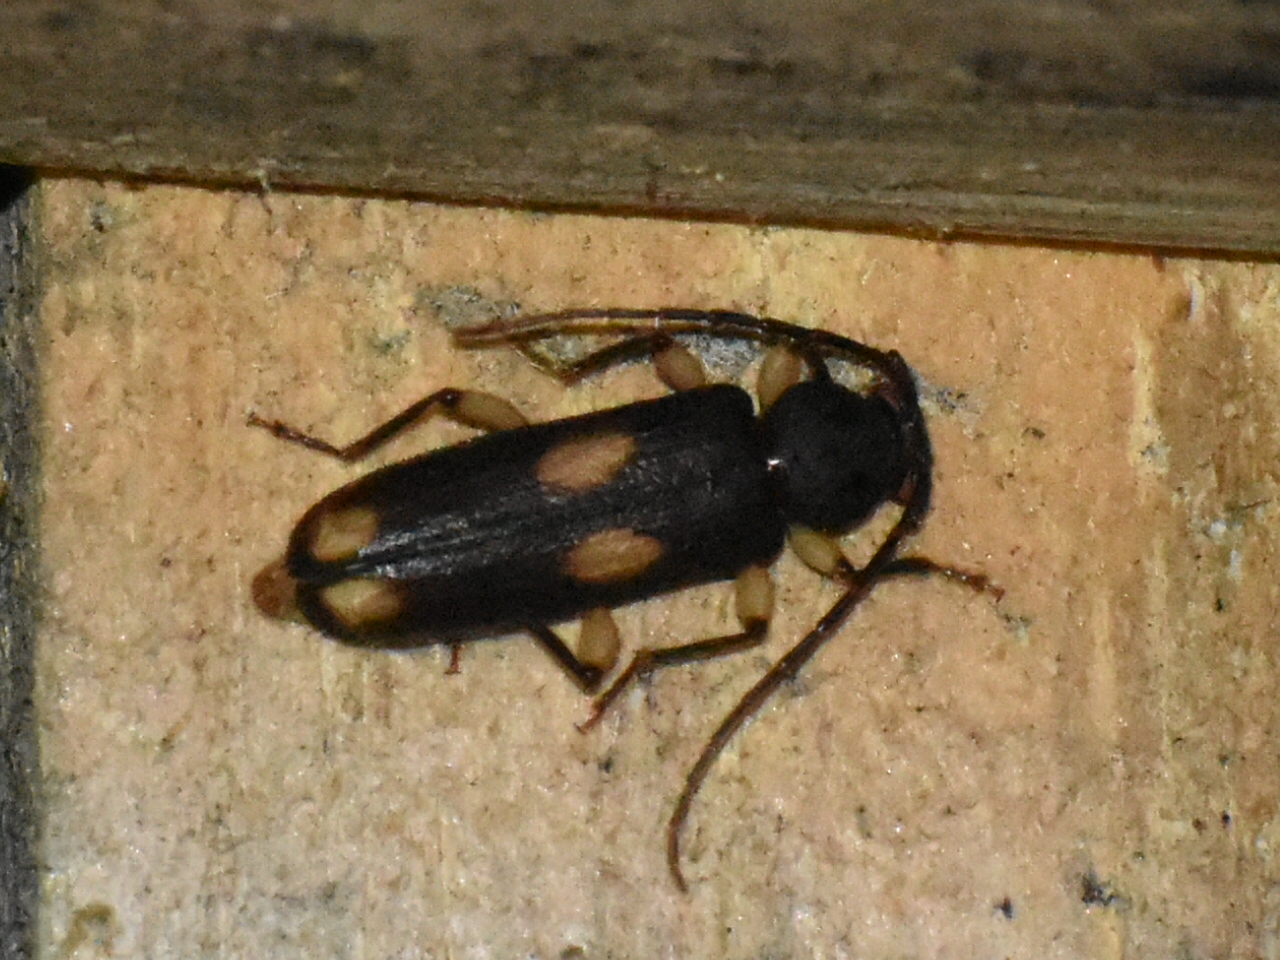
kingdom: Animalia
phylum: Arthropoda
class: Insecta
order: Coleoptera
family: Cerambycidae
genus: Tylonotus
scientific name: Tylonotus bimaculatus
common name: Ash and privet borer
